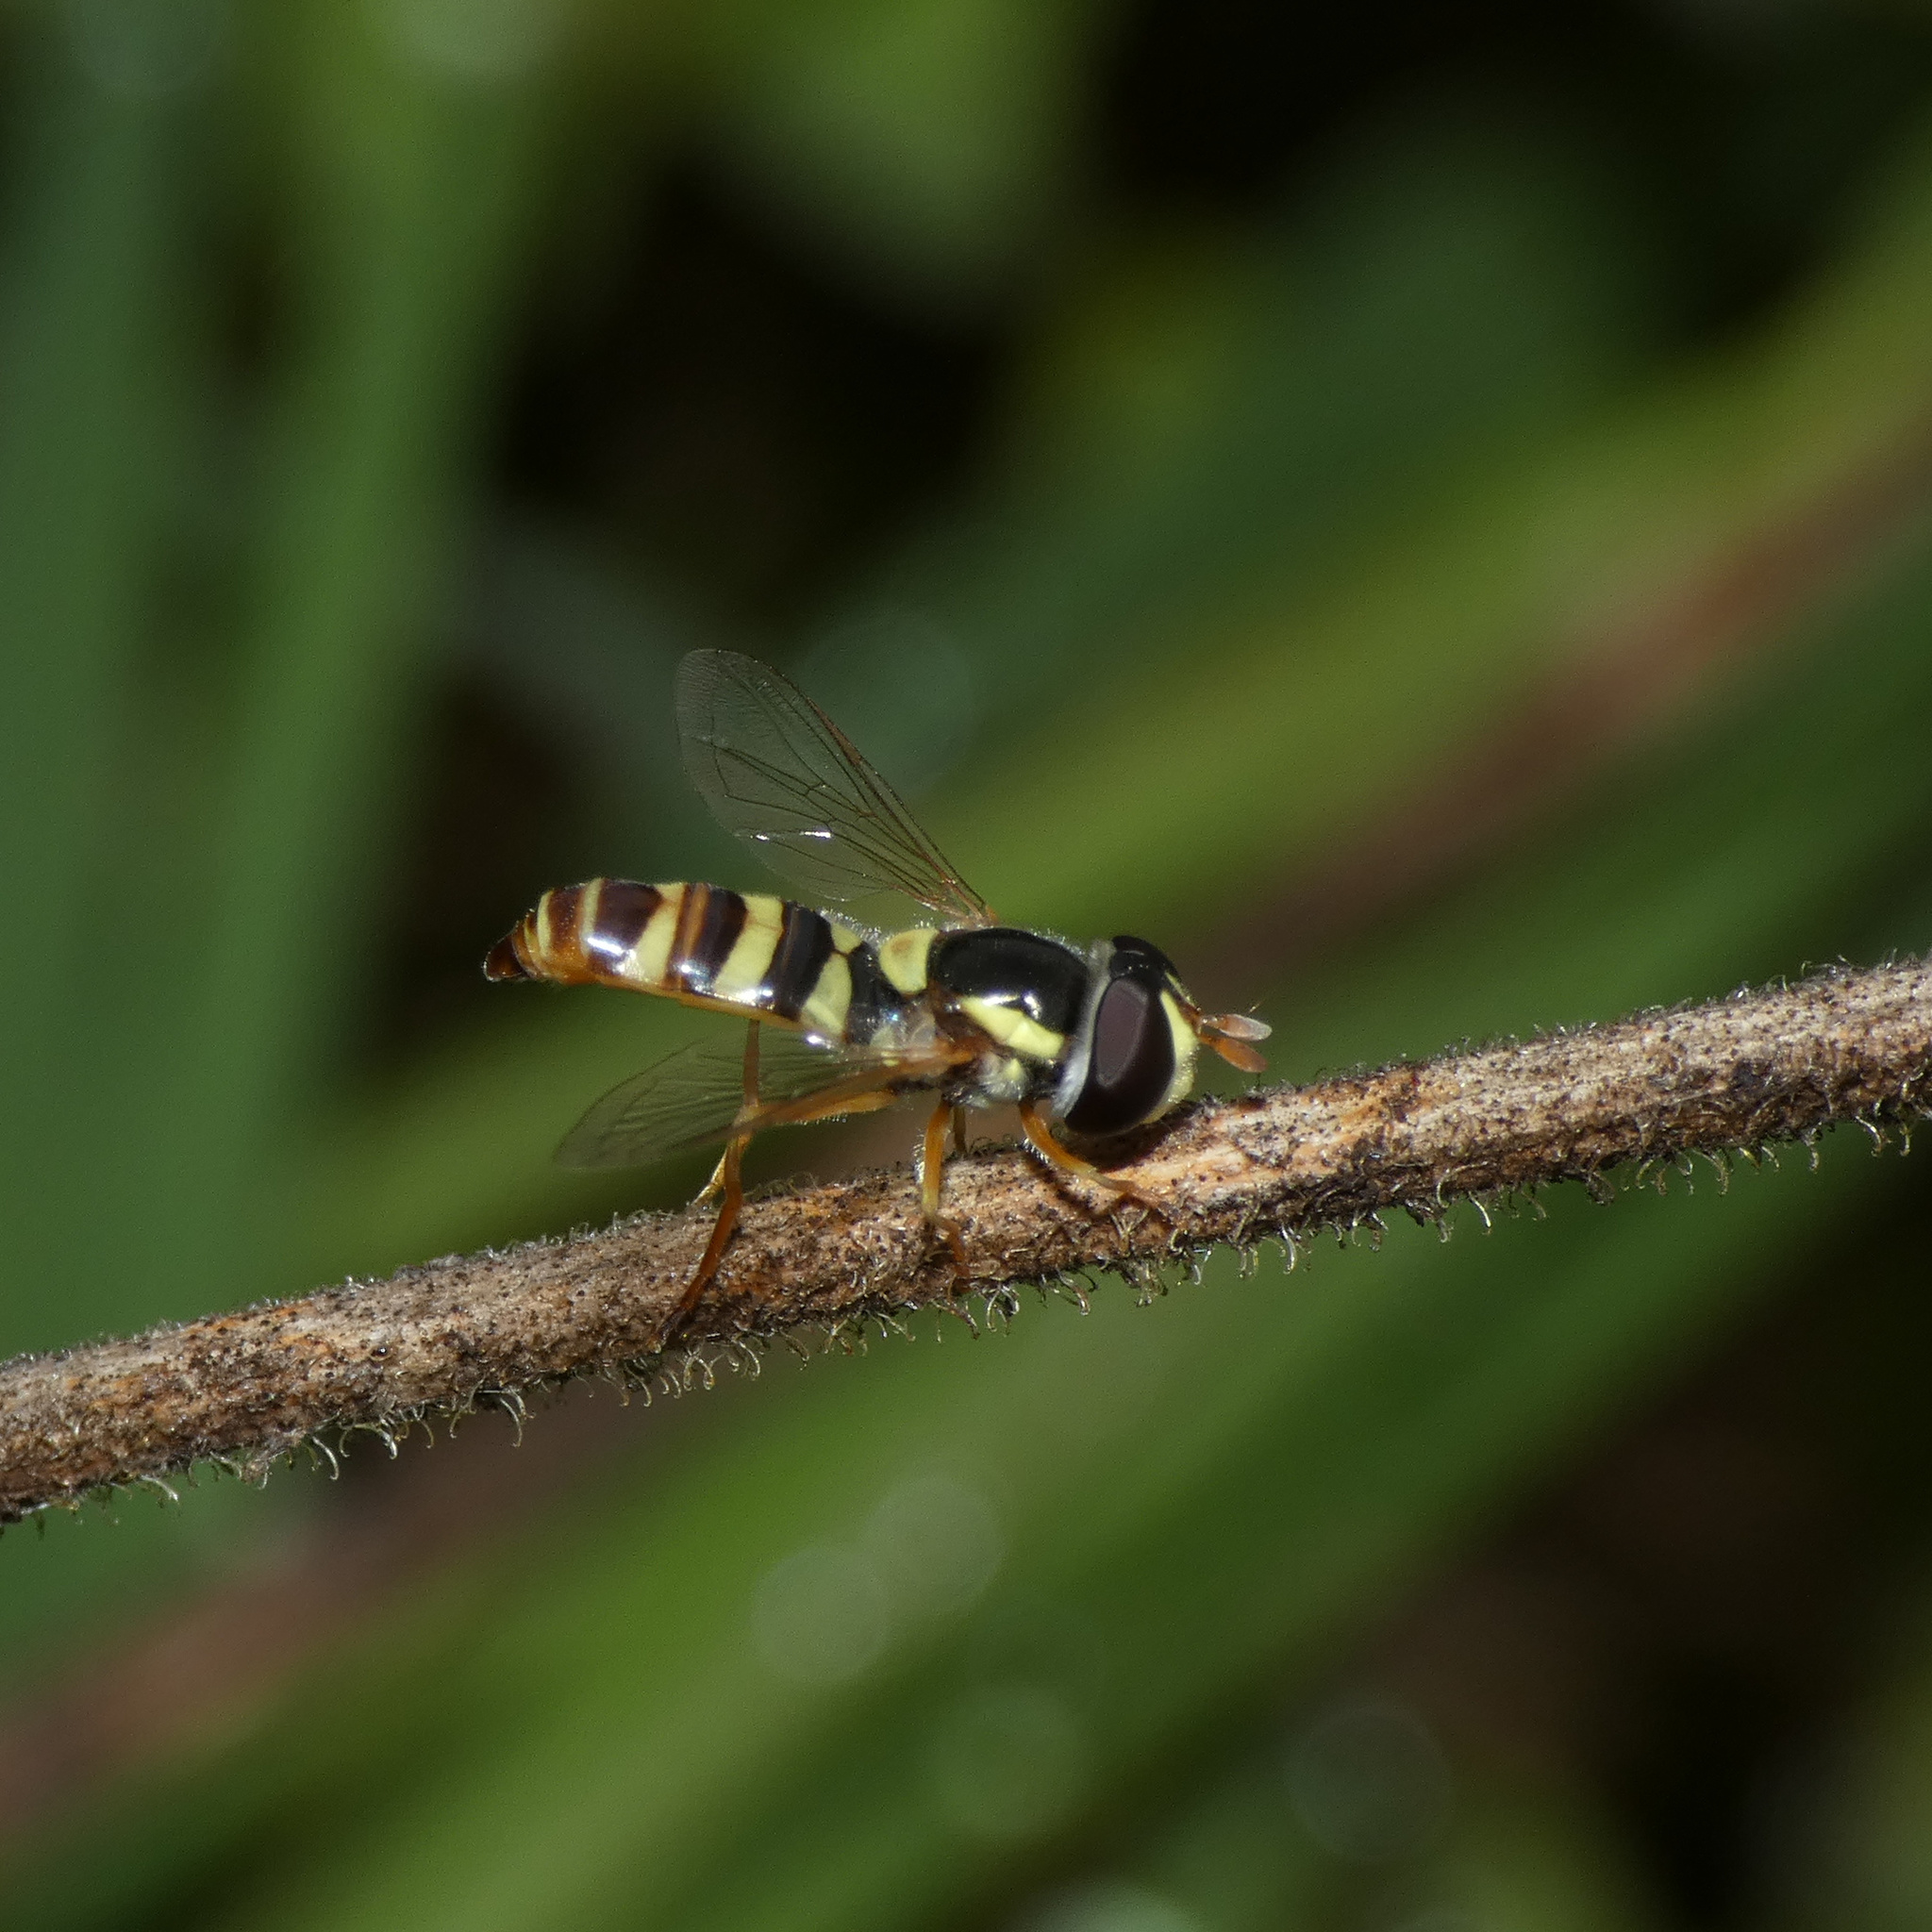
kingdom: Animalia
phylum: Arthropoda
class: Insecta
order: Diptera
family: Syrphidae
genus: Ischiodon
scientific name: Ischiodon aegyptius
